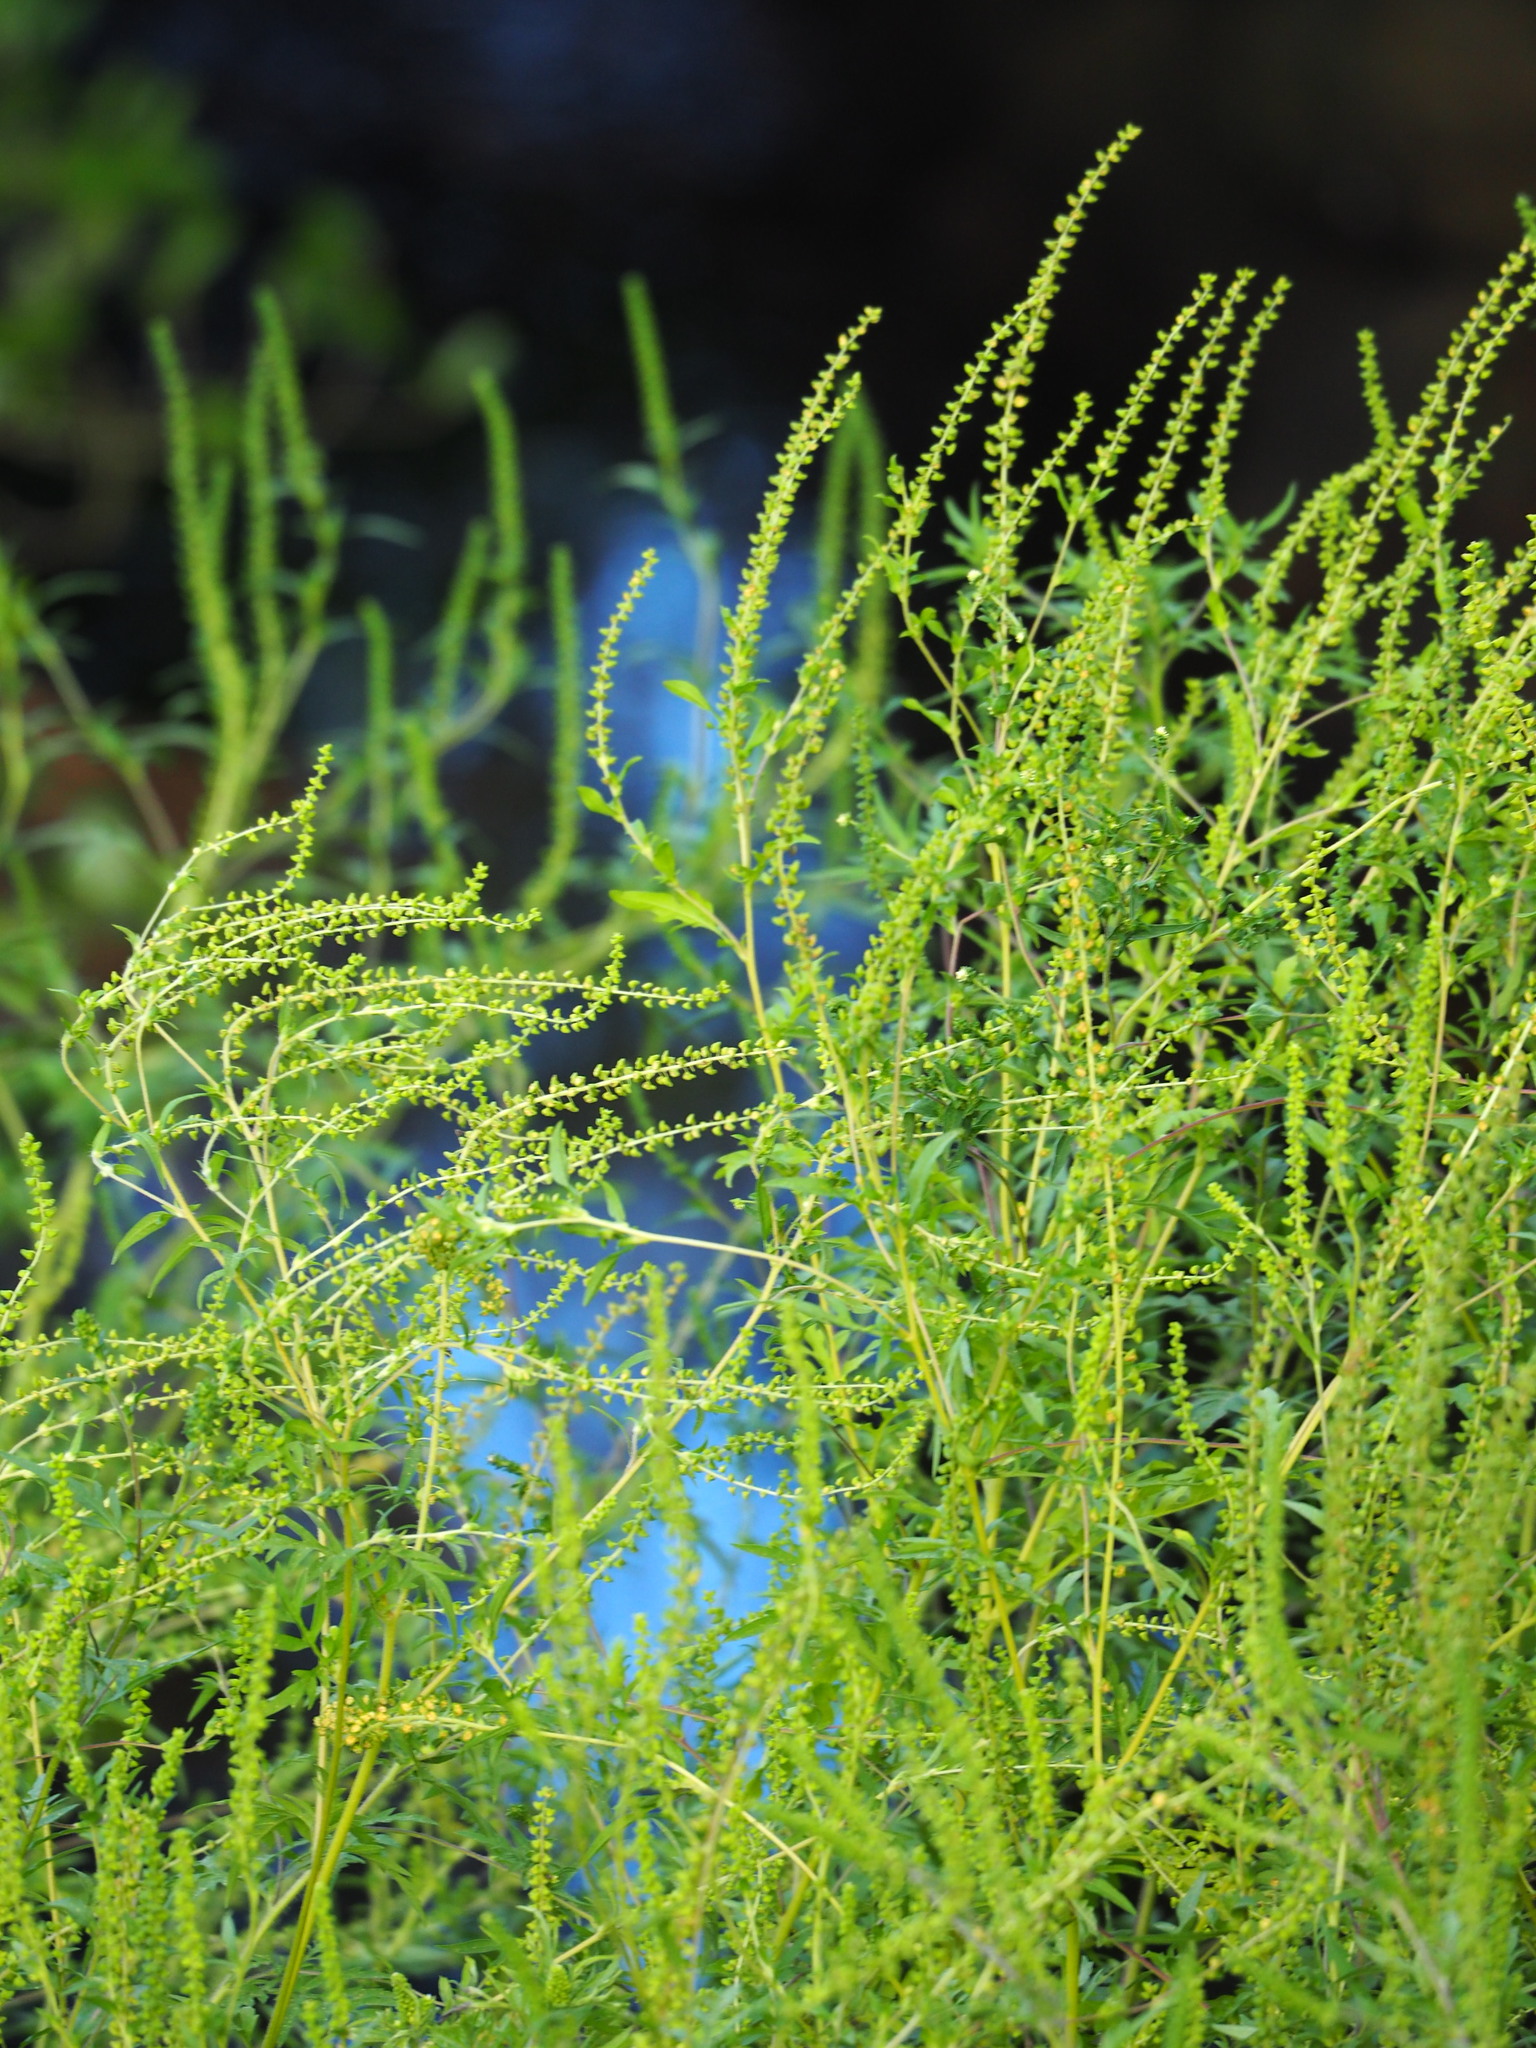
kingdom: Plantae
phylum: Tracheophyta
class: Magnoliopsida
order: Asterales
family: Asteraceae
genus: Ambrosia
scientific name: Ambrosia artemisiifolia
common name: Annual ragweed
